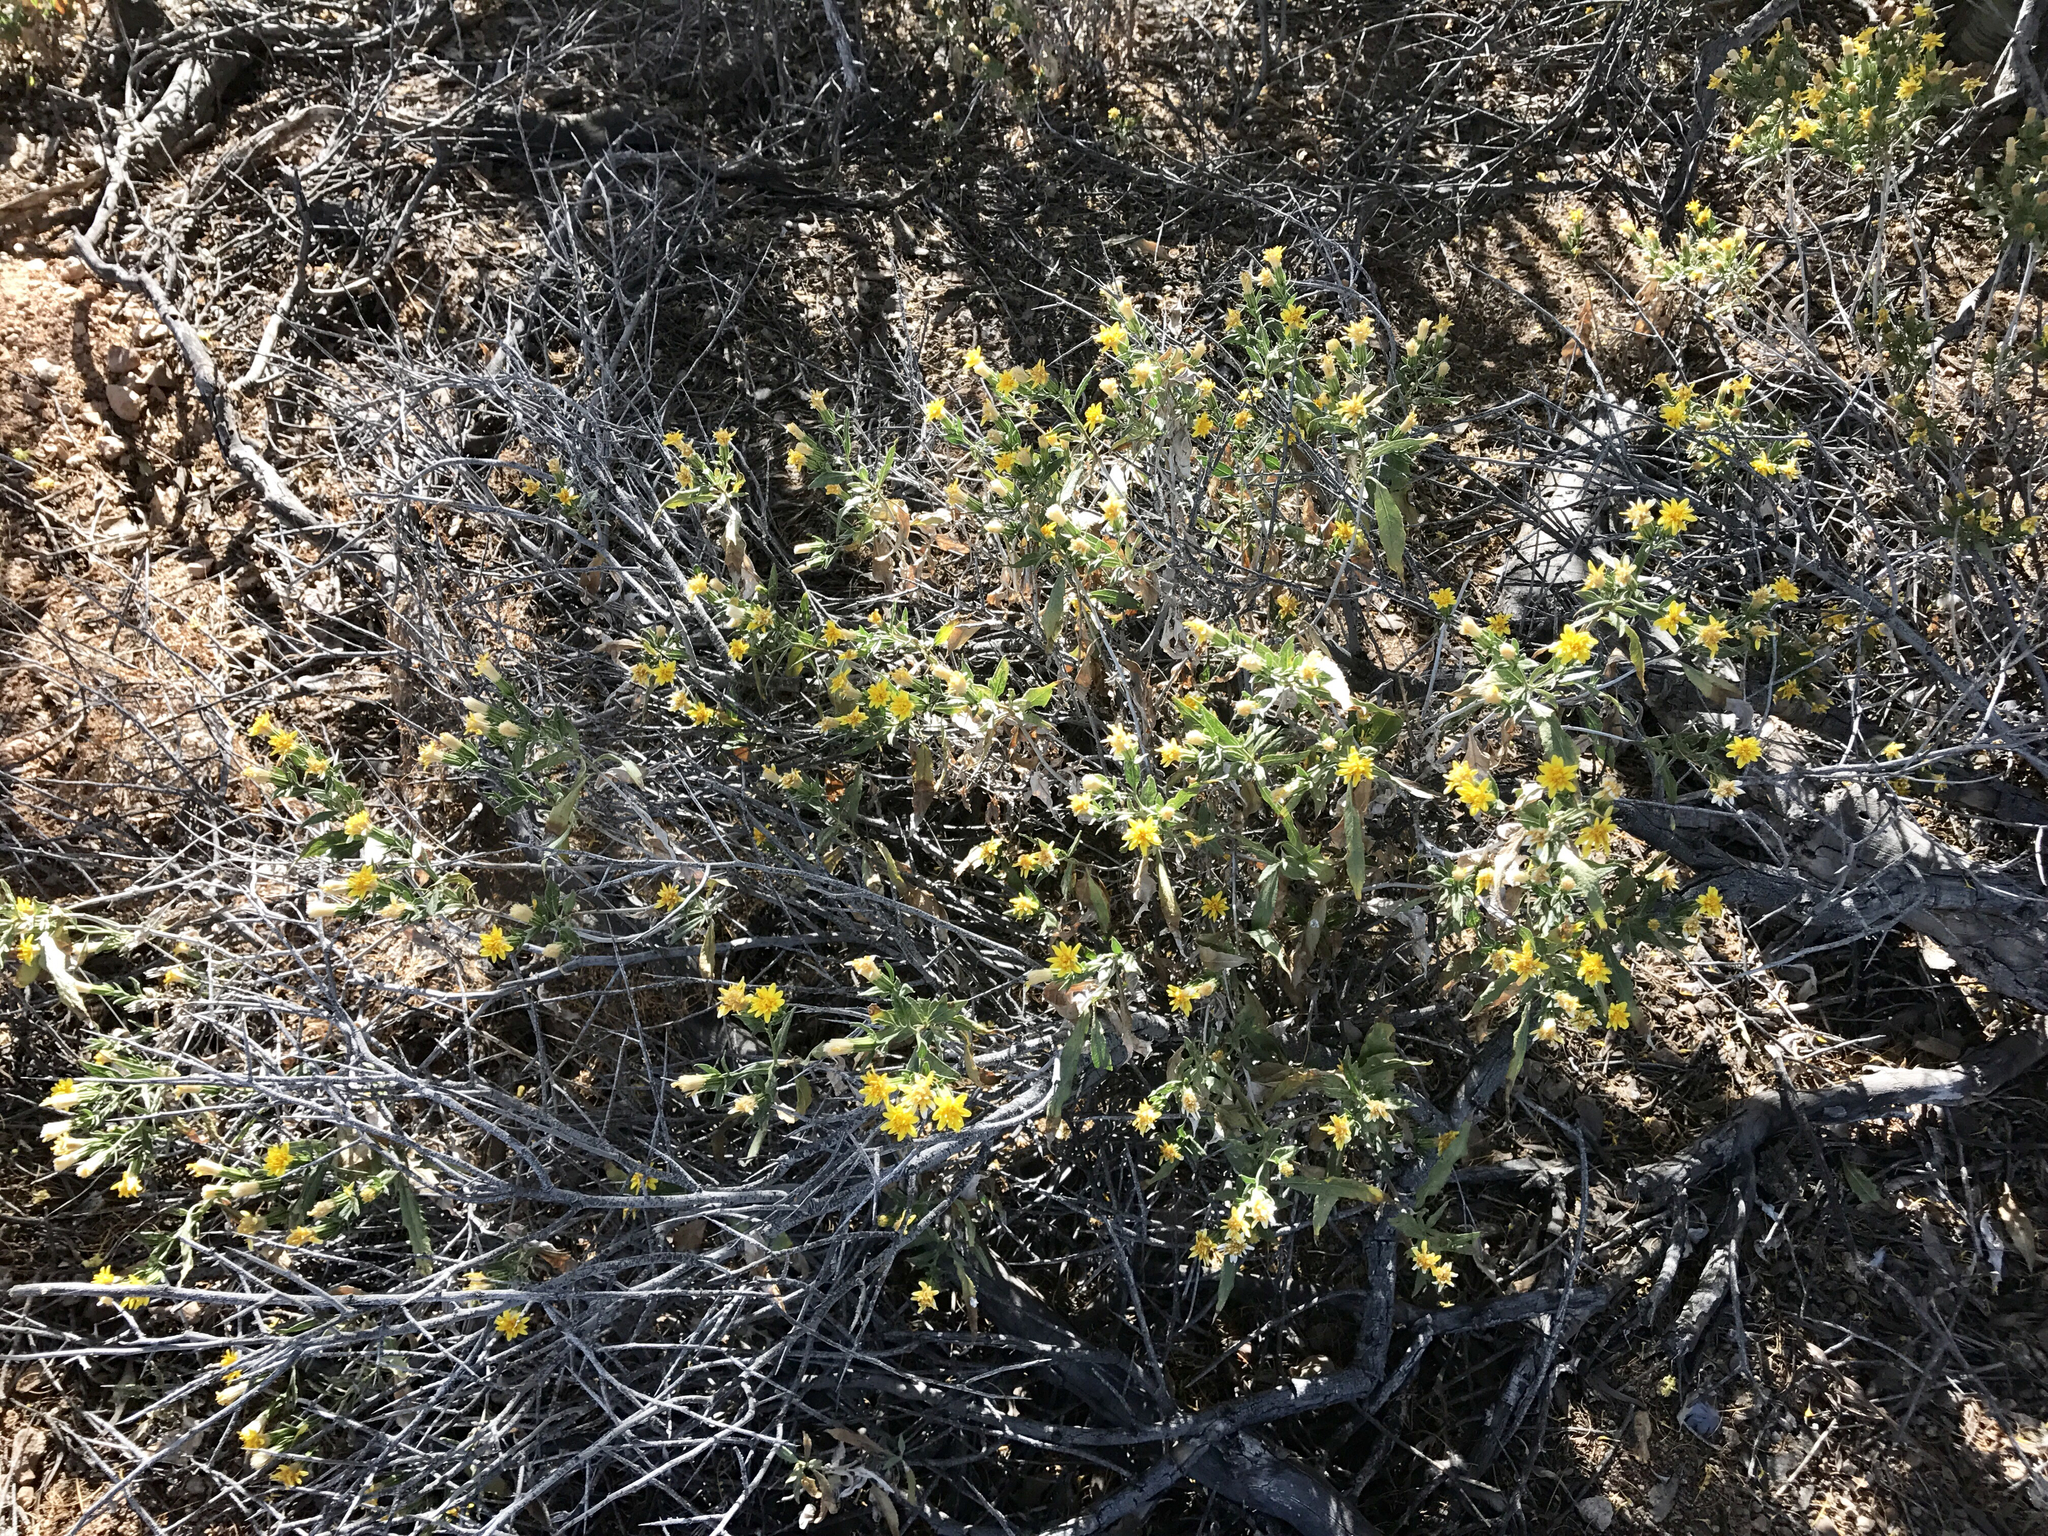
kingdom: Plantae
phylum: Tracheophyta
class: Magnoliopsida
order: Asterales
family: Asteraceae
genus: Trixis
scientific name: Trixis californica
